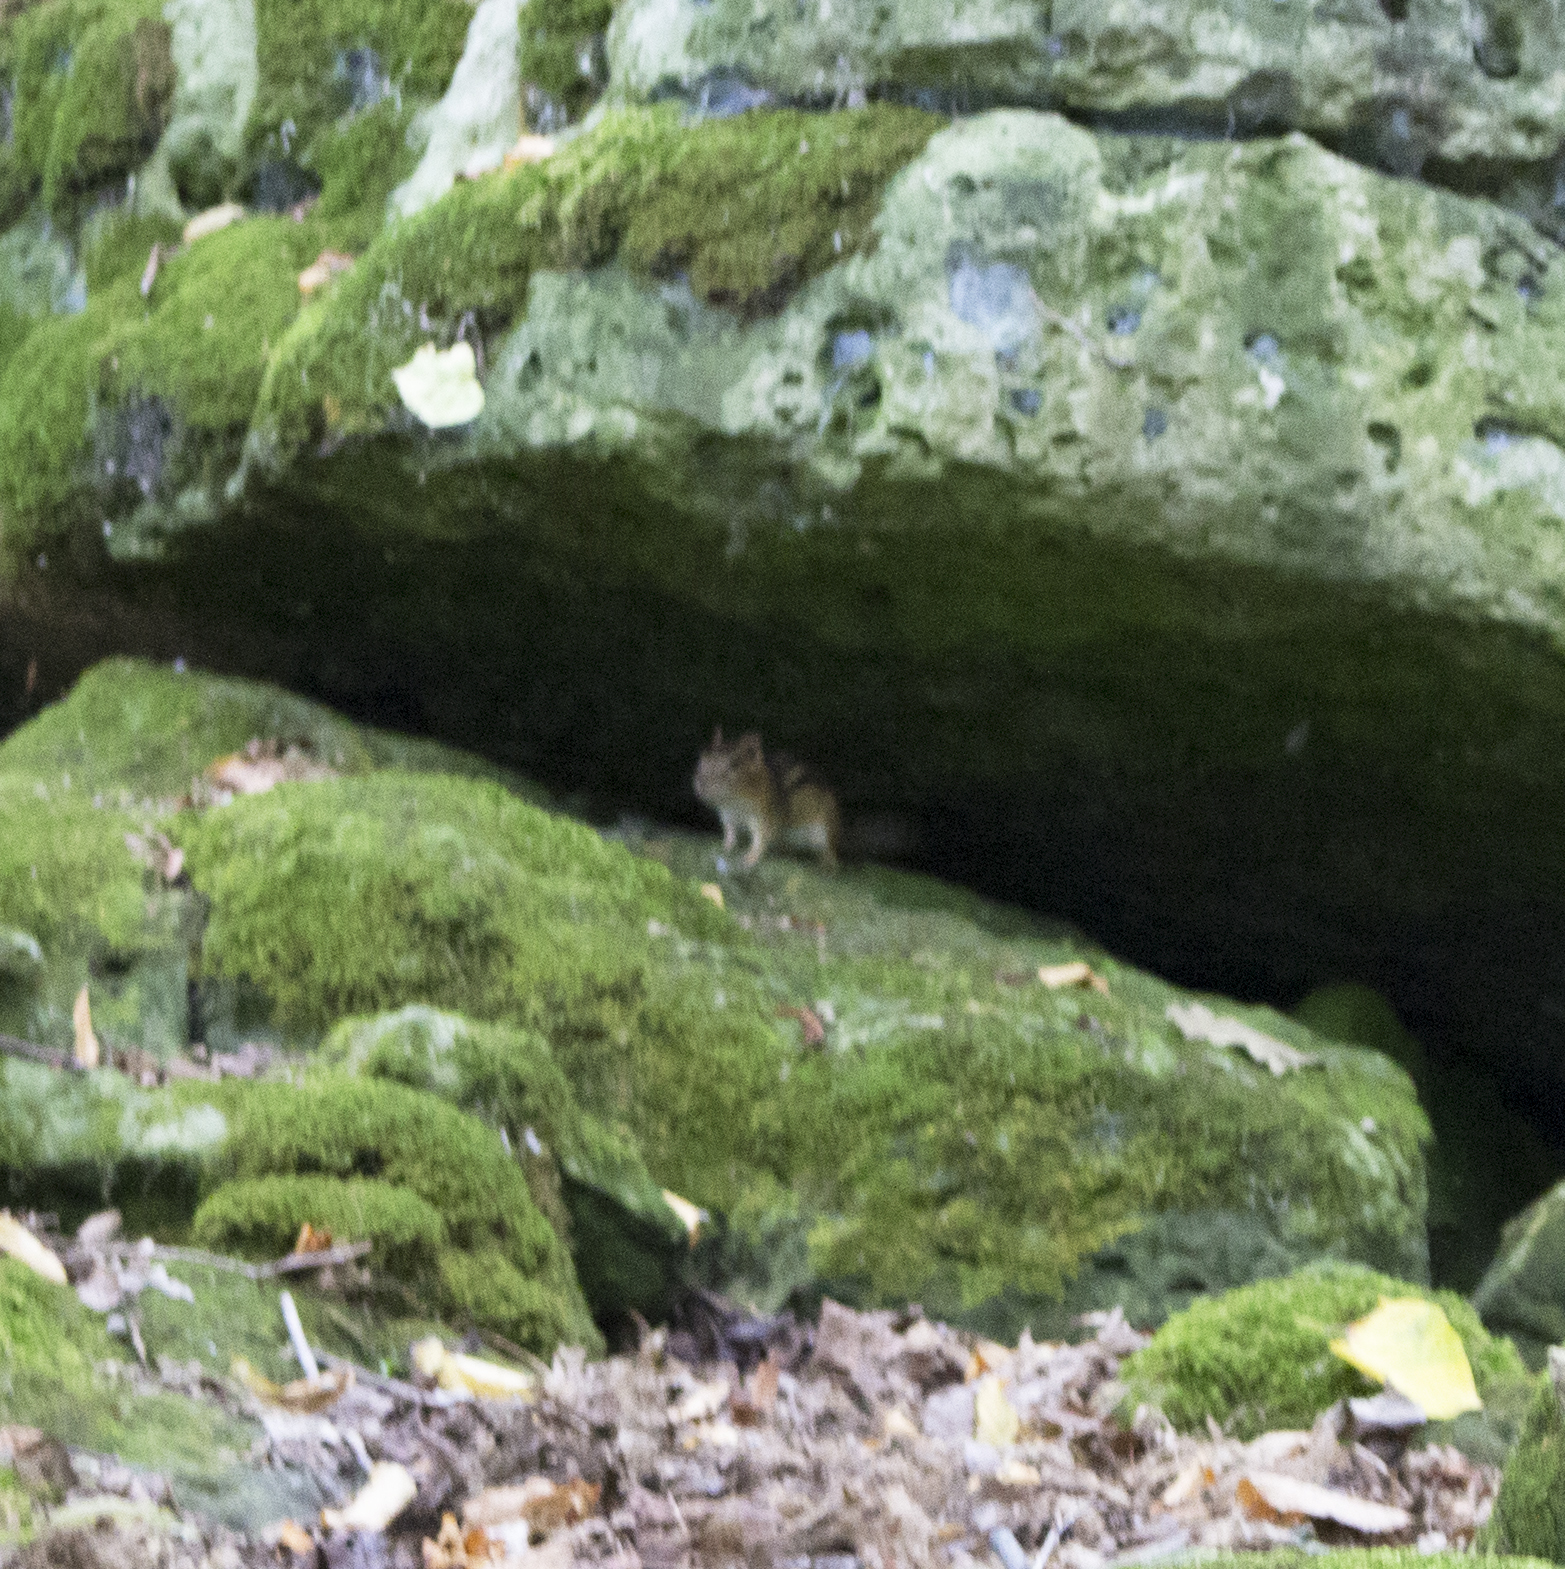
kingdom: Animalia
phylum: Chordata
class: Mammalia
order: Rodentia
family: Sciuridae
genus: Tamias
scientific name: Tamias striatus
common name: Eastern chipmunk
